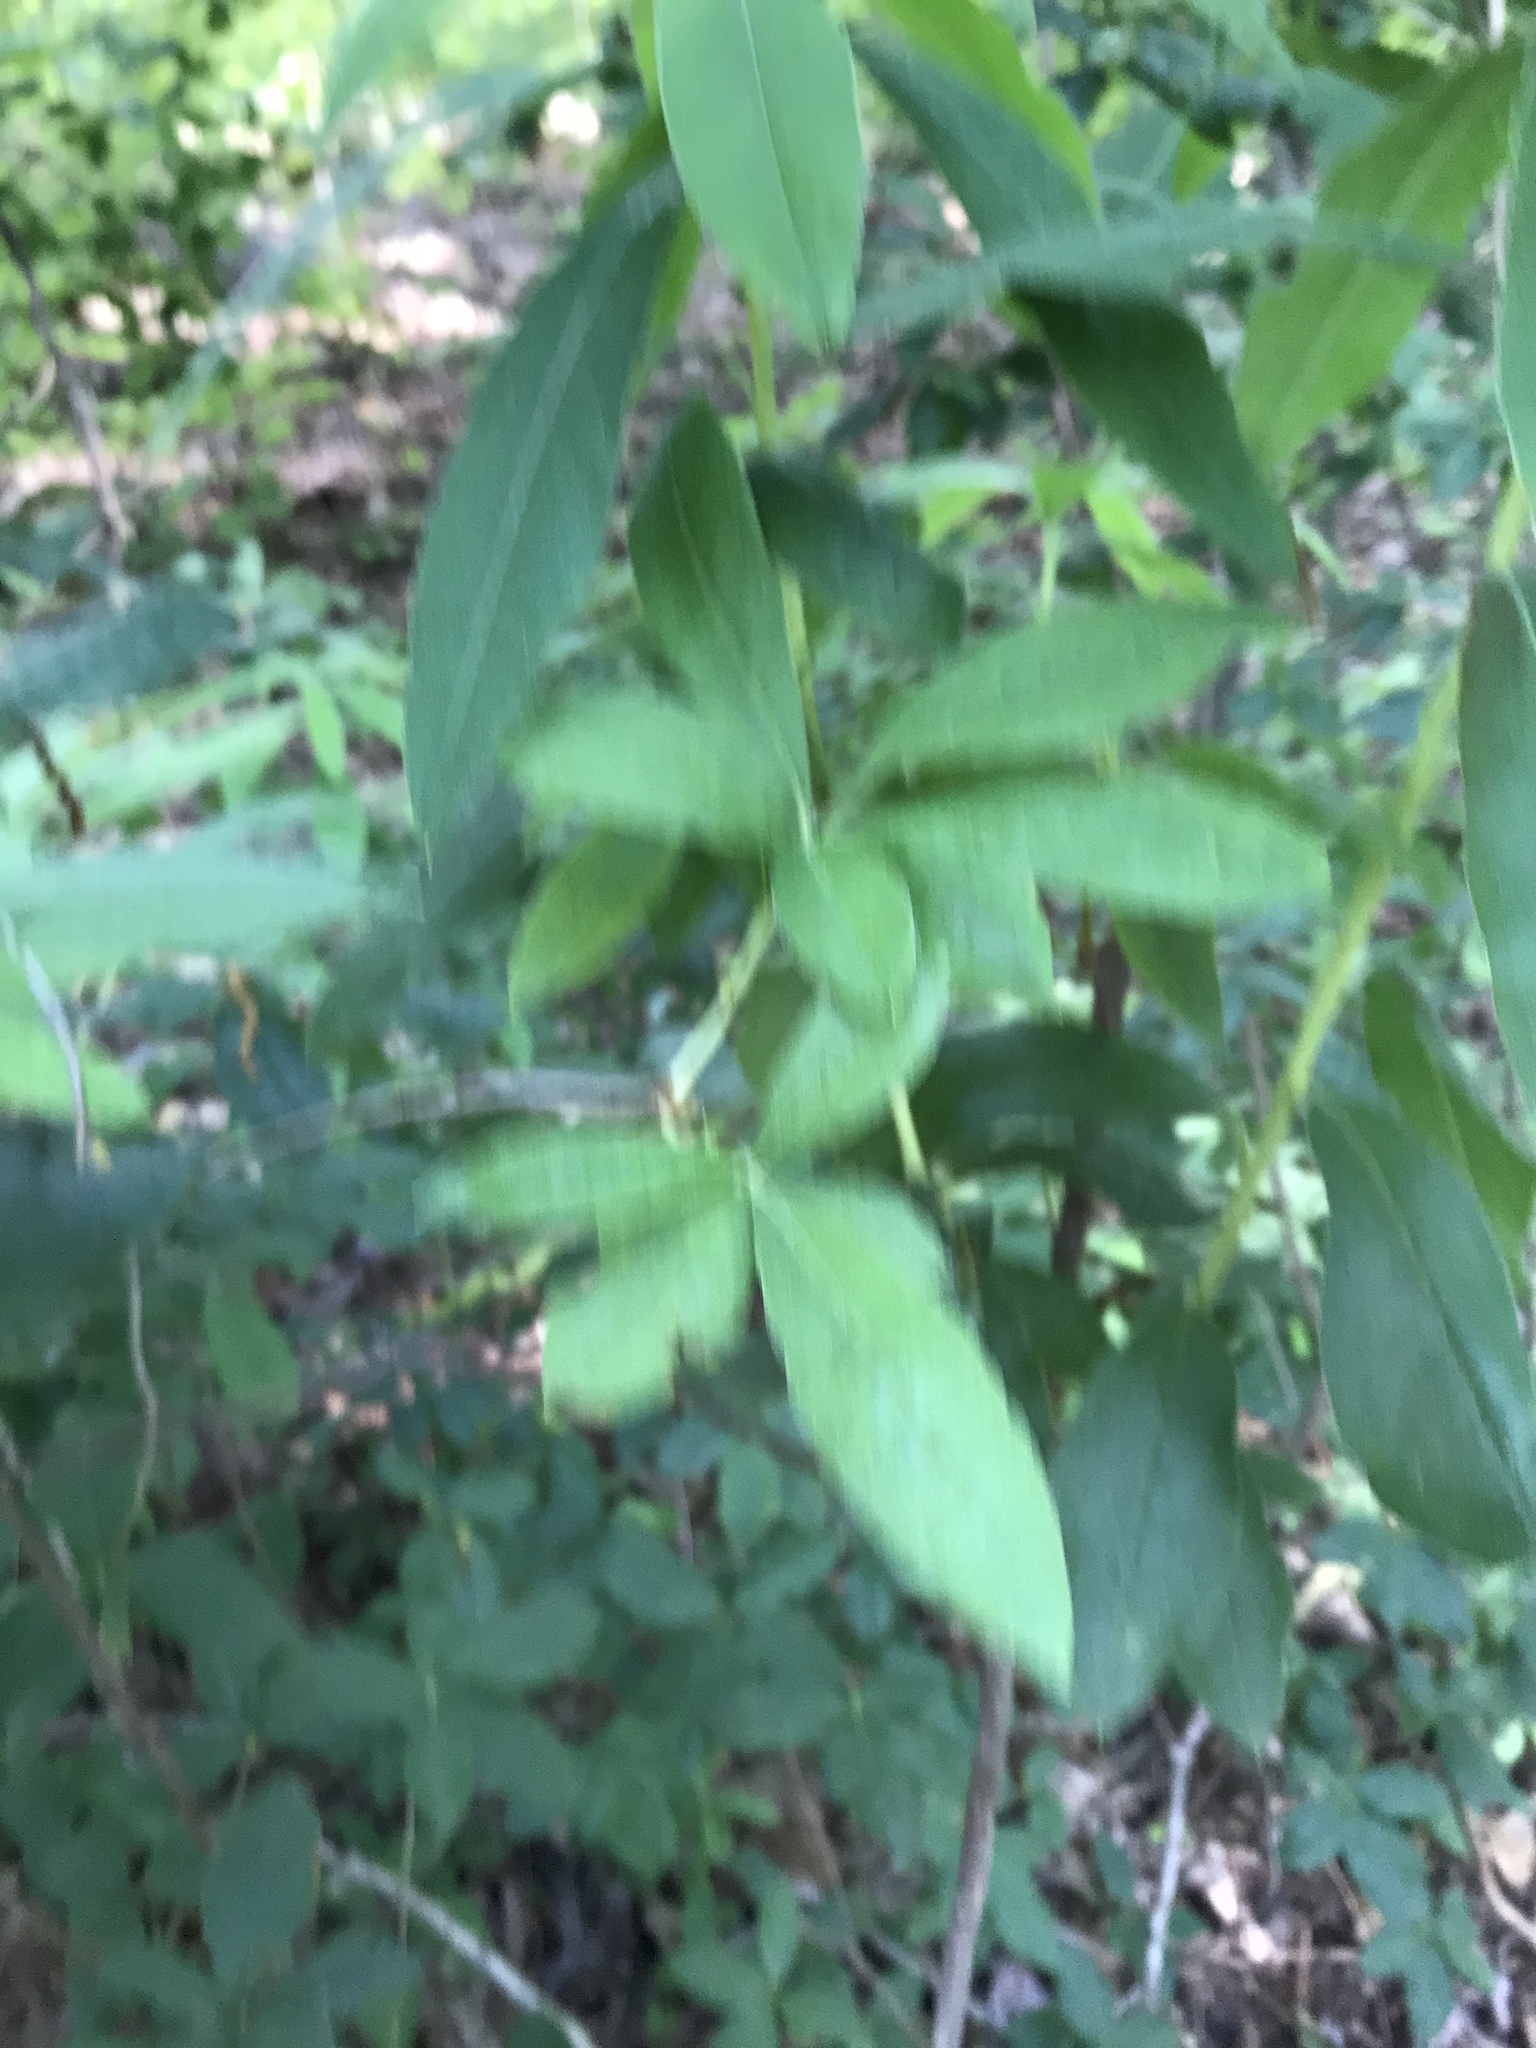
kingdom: Plantae
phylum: Tracheophyta
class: Magnoliopsida
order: Ranunculales
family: Lardizabalaceae
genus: Akebia
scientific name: Akebia quinata
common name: Five-leaf akebia
